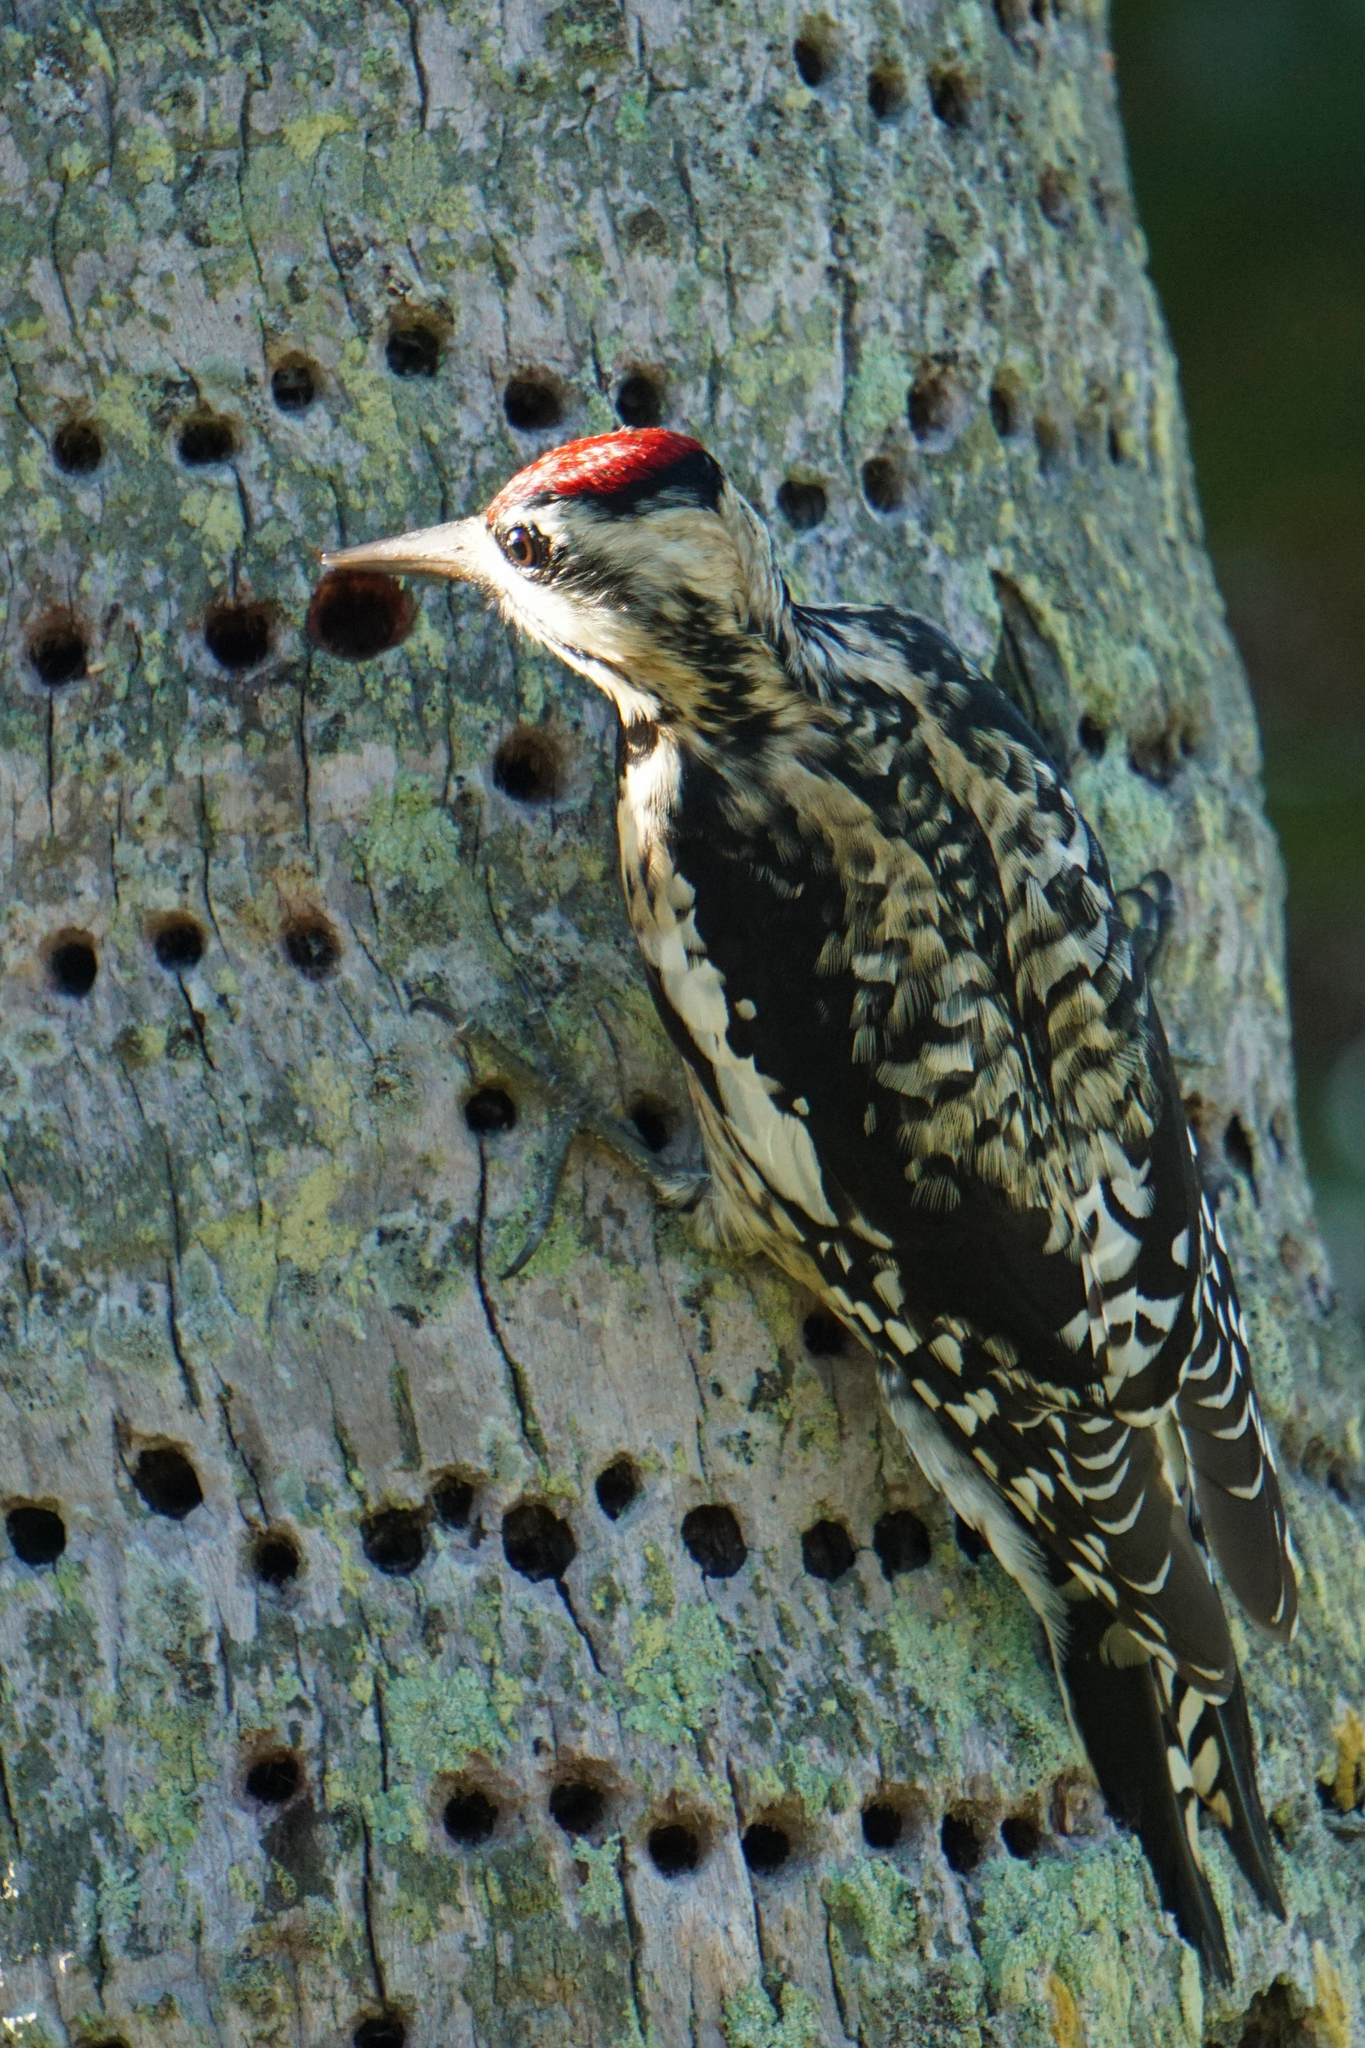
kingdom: Animalia
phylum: Chordata
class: Aves
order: Piciformes
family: Picidae
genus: Sphyrapicus
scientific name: Sphyrapicus varius
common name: Yellow-bellied sapsucker
